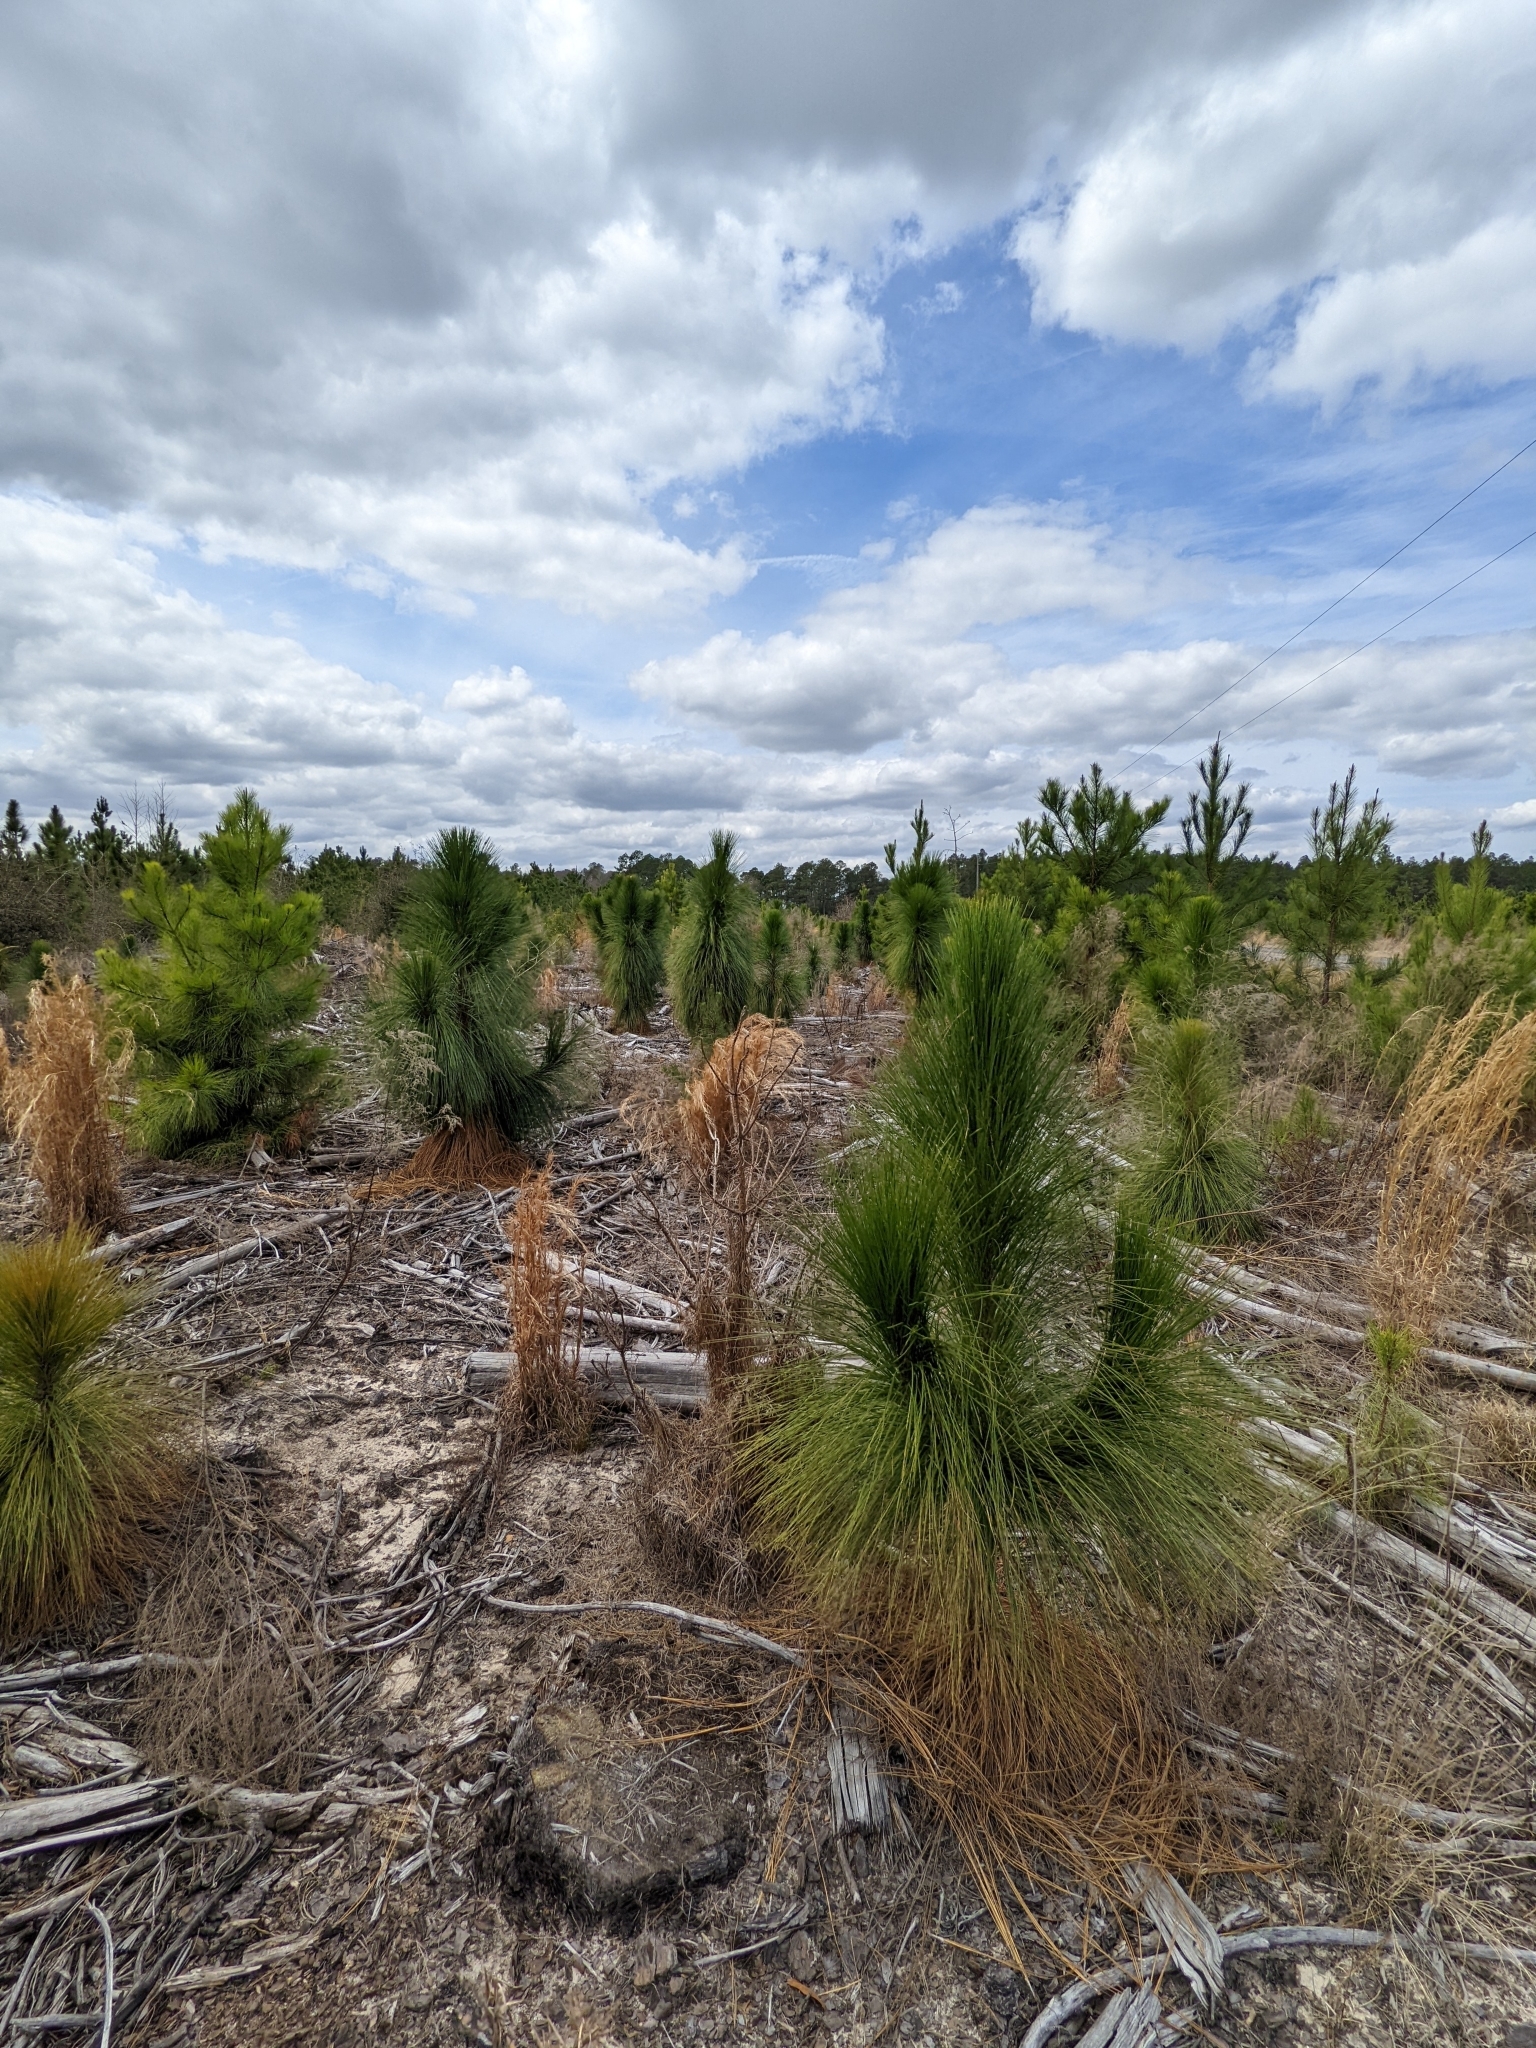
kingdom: Plantae
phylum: Tracheophyta
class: Pinopsida
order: Pinales
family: Pinaceae
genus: Pinus
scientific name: Pinus palustris
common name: Longleaf pine
